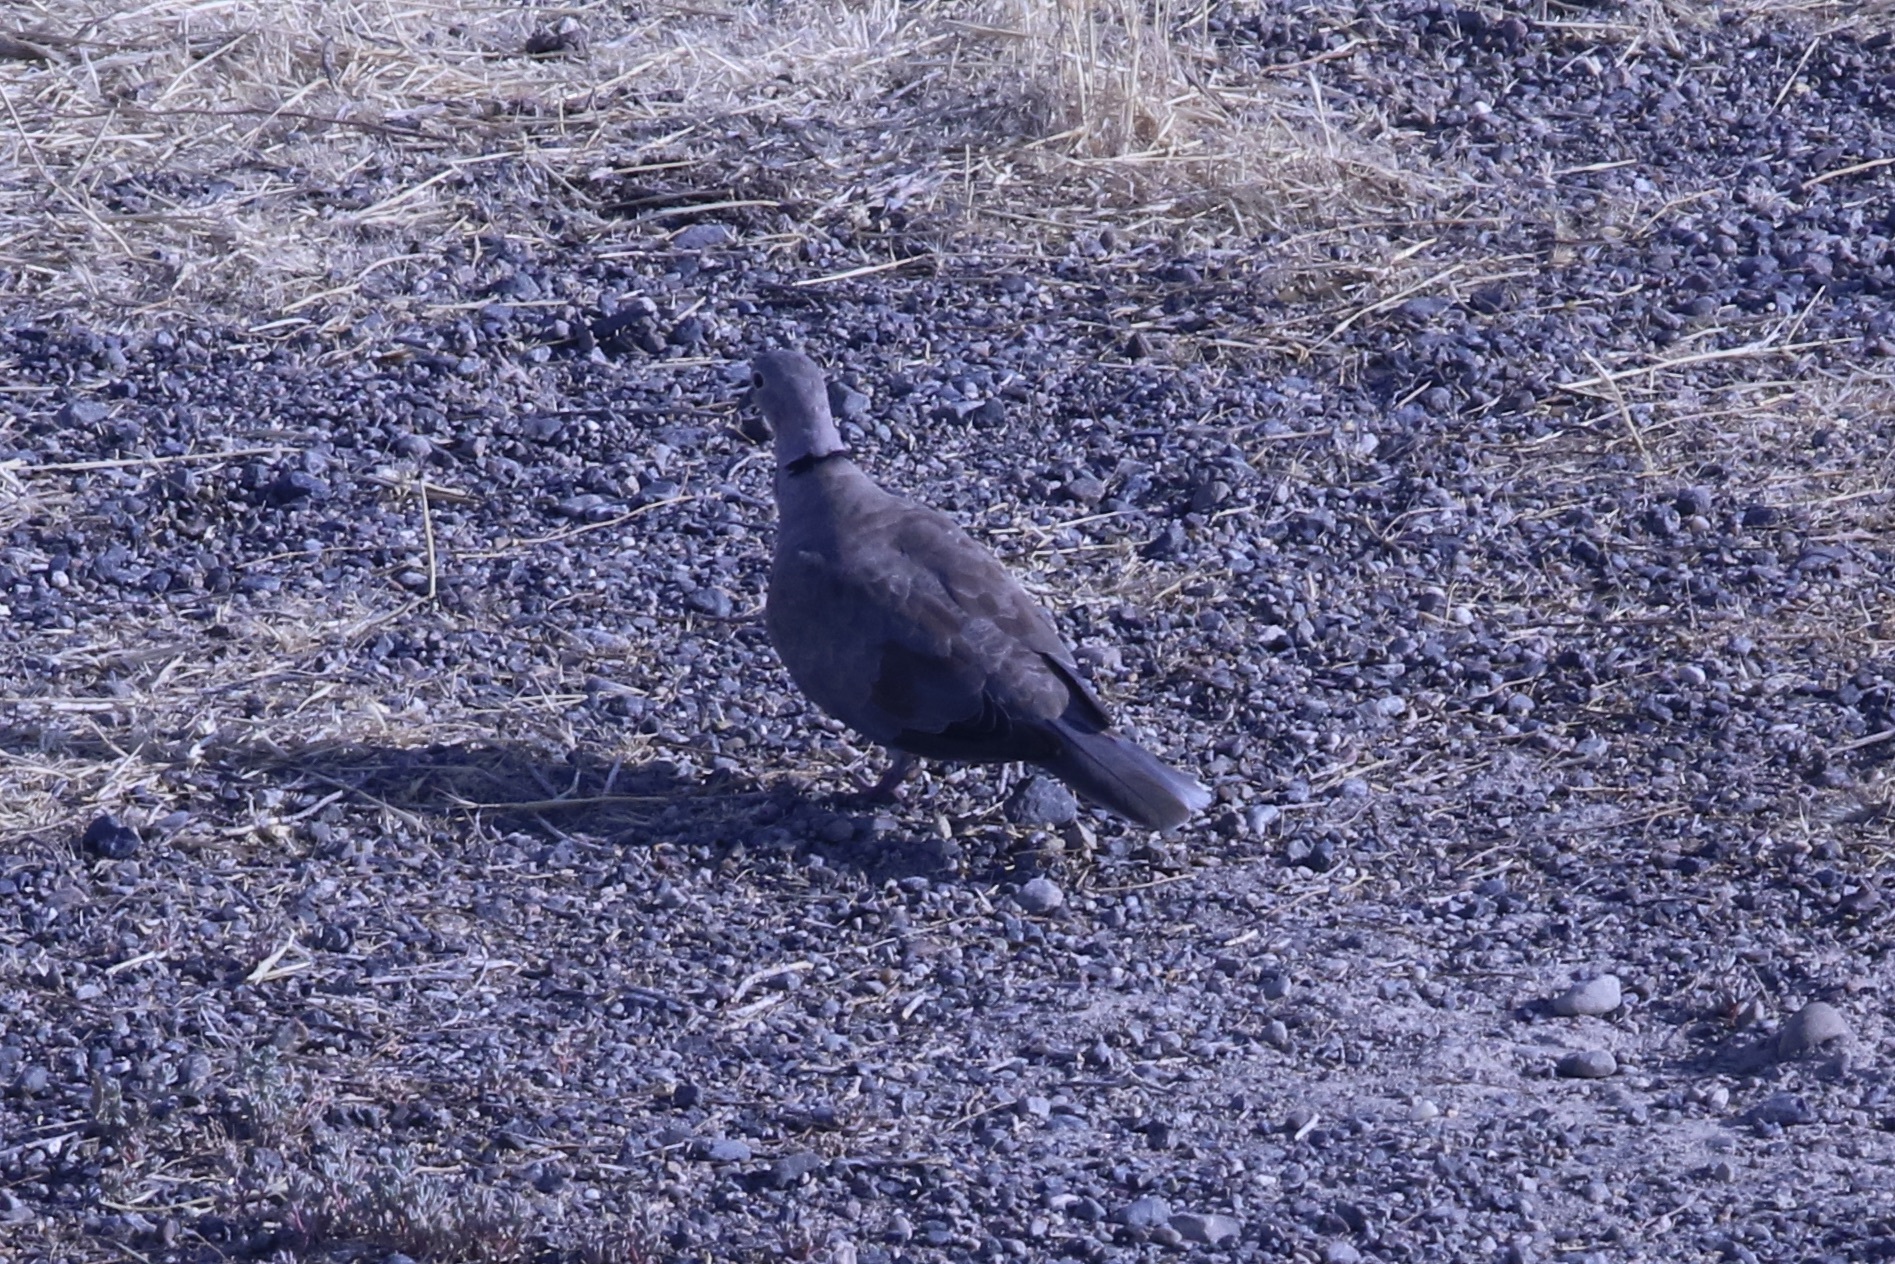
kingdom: Animalia
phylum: Chordata
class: Aves
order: Columbiformes
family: Columbidae
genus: Streptopelia
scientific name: Streptopelia decaocto
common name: Eurasian collared dove
